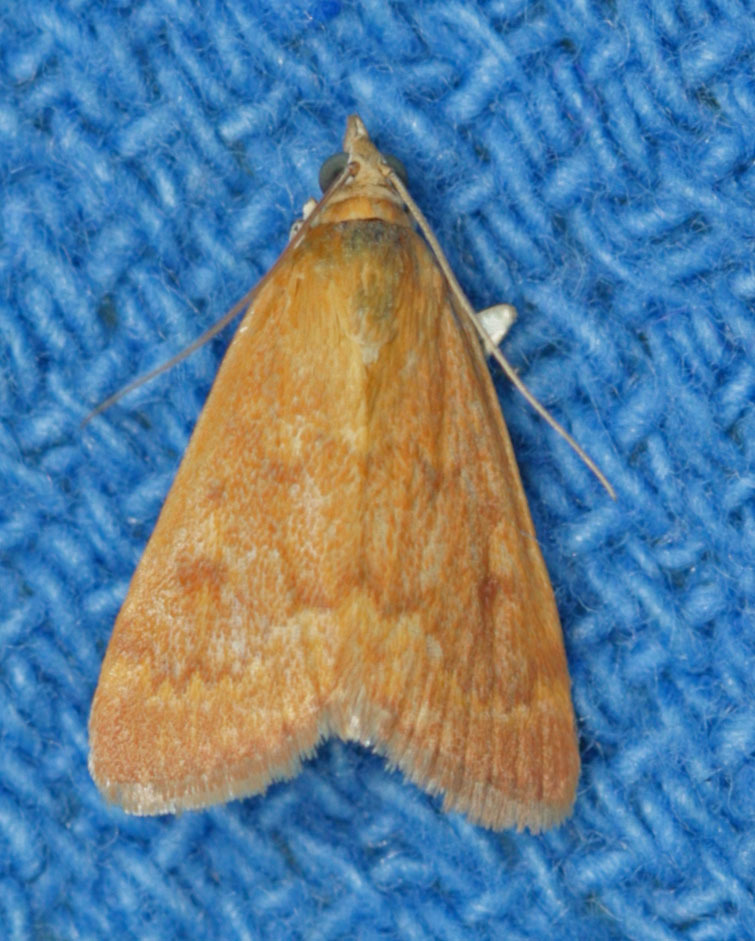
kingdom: Animalia
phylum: Arthropoda
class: Insecta
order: Lepidoptera
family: Crambidae
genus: Achyra
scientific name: Achyra rantalis
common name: Garden webworm
